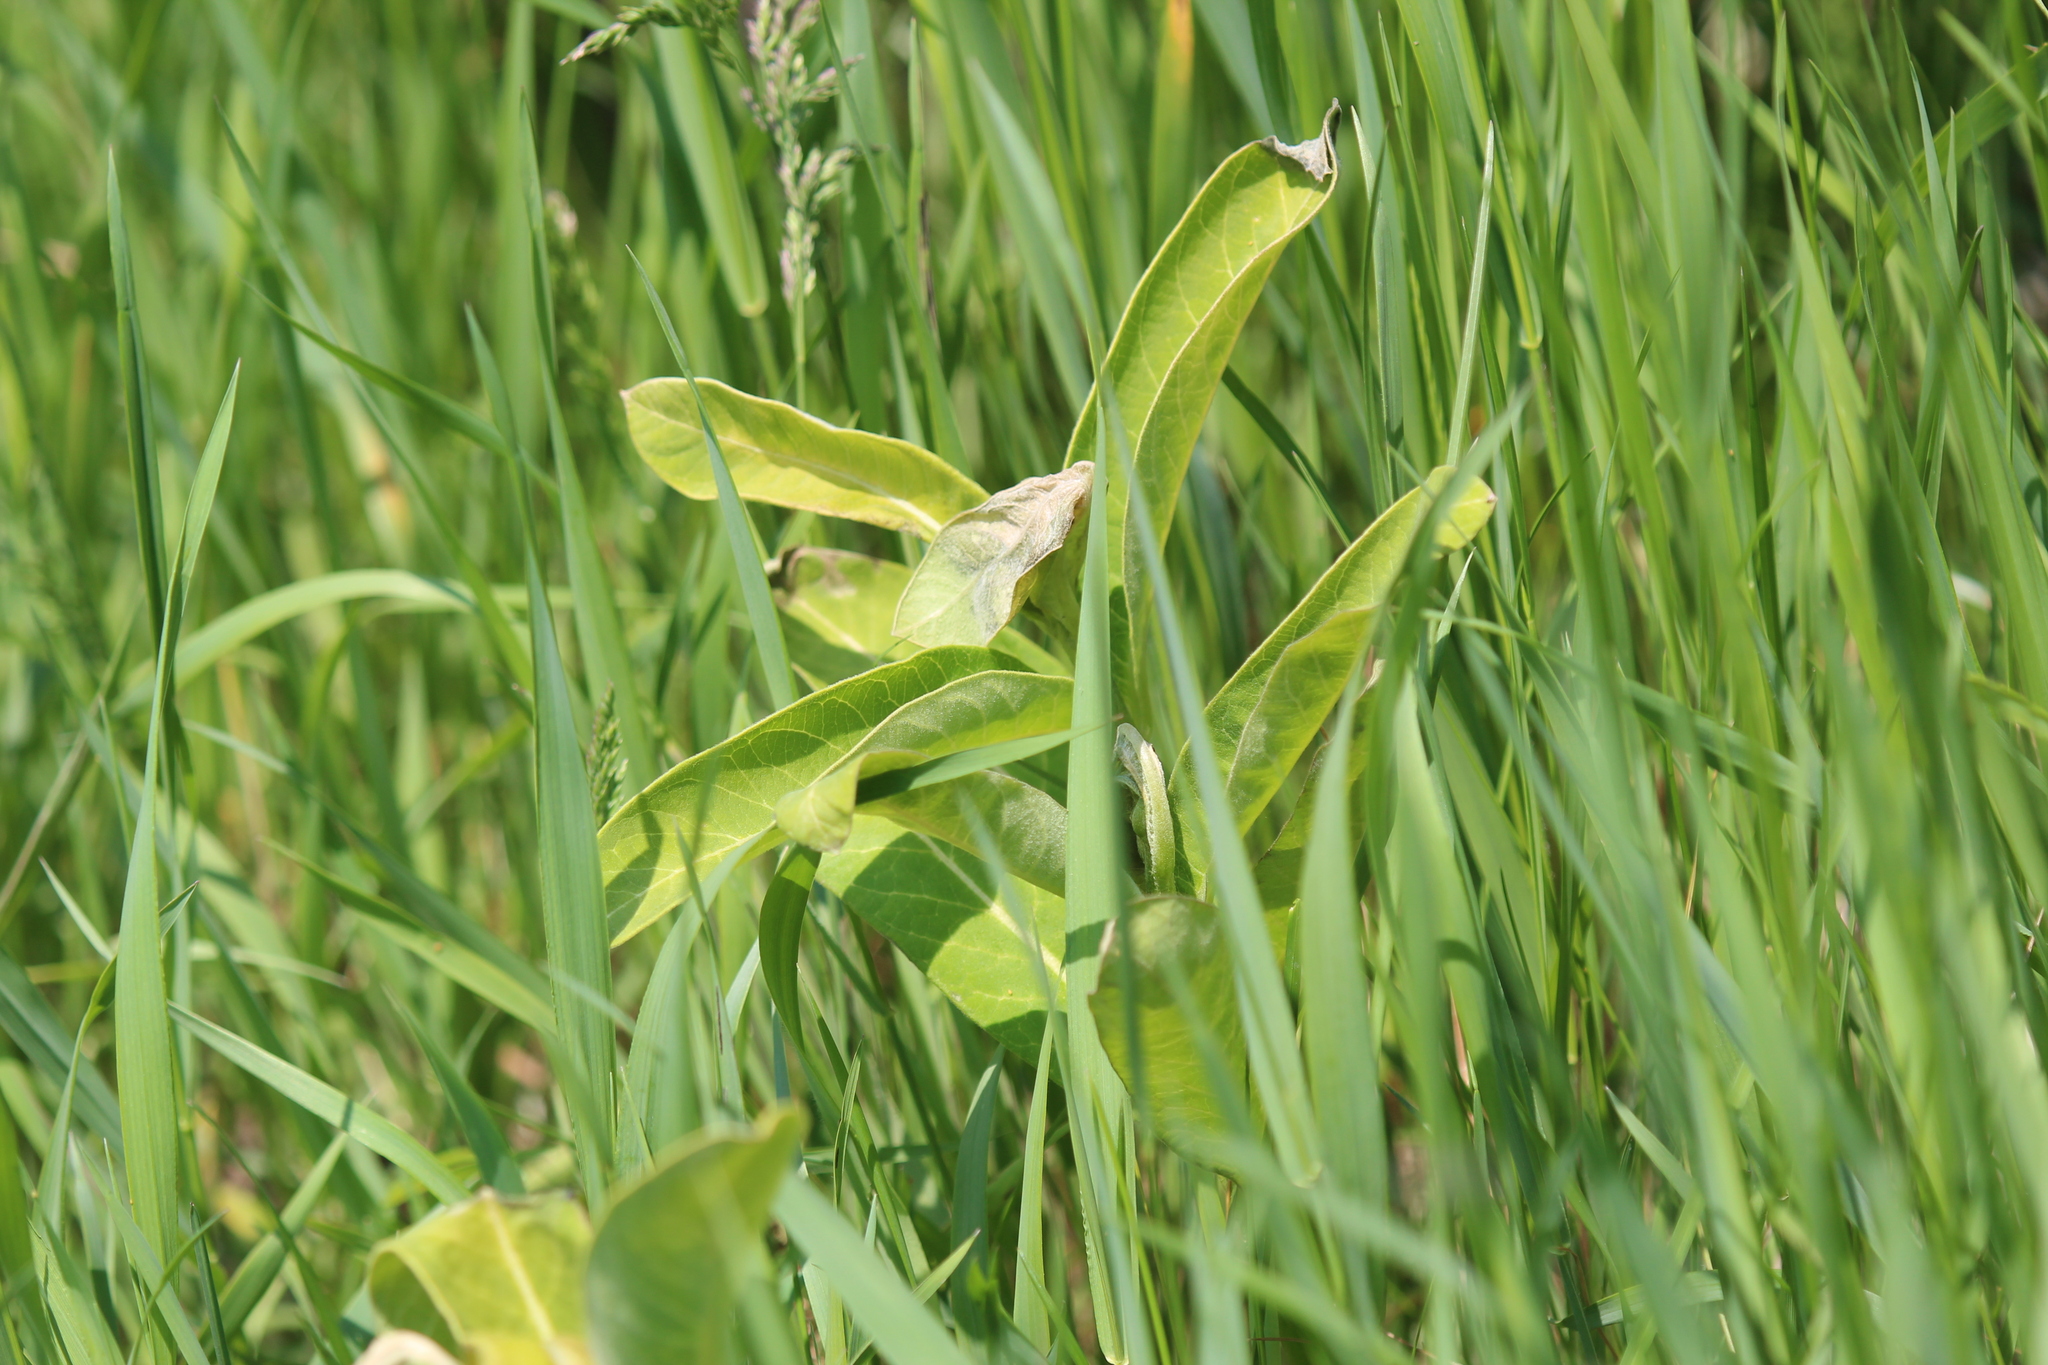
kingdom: Plantae
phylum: Tracheophyta
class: Magnoliopsida
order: Gentianales
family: Apocynaceae
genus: Asclepias
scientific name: Asclepias syriaca
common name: Common milkweed
